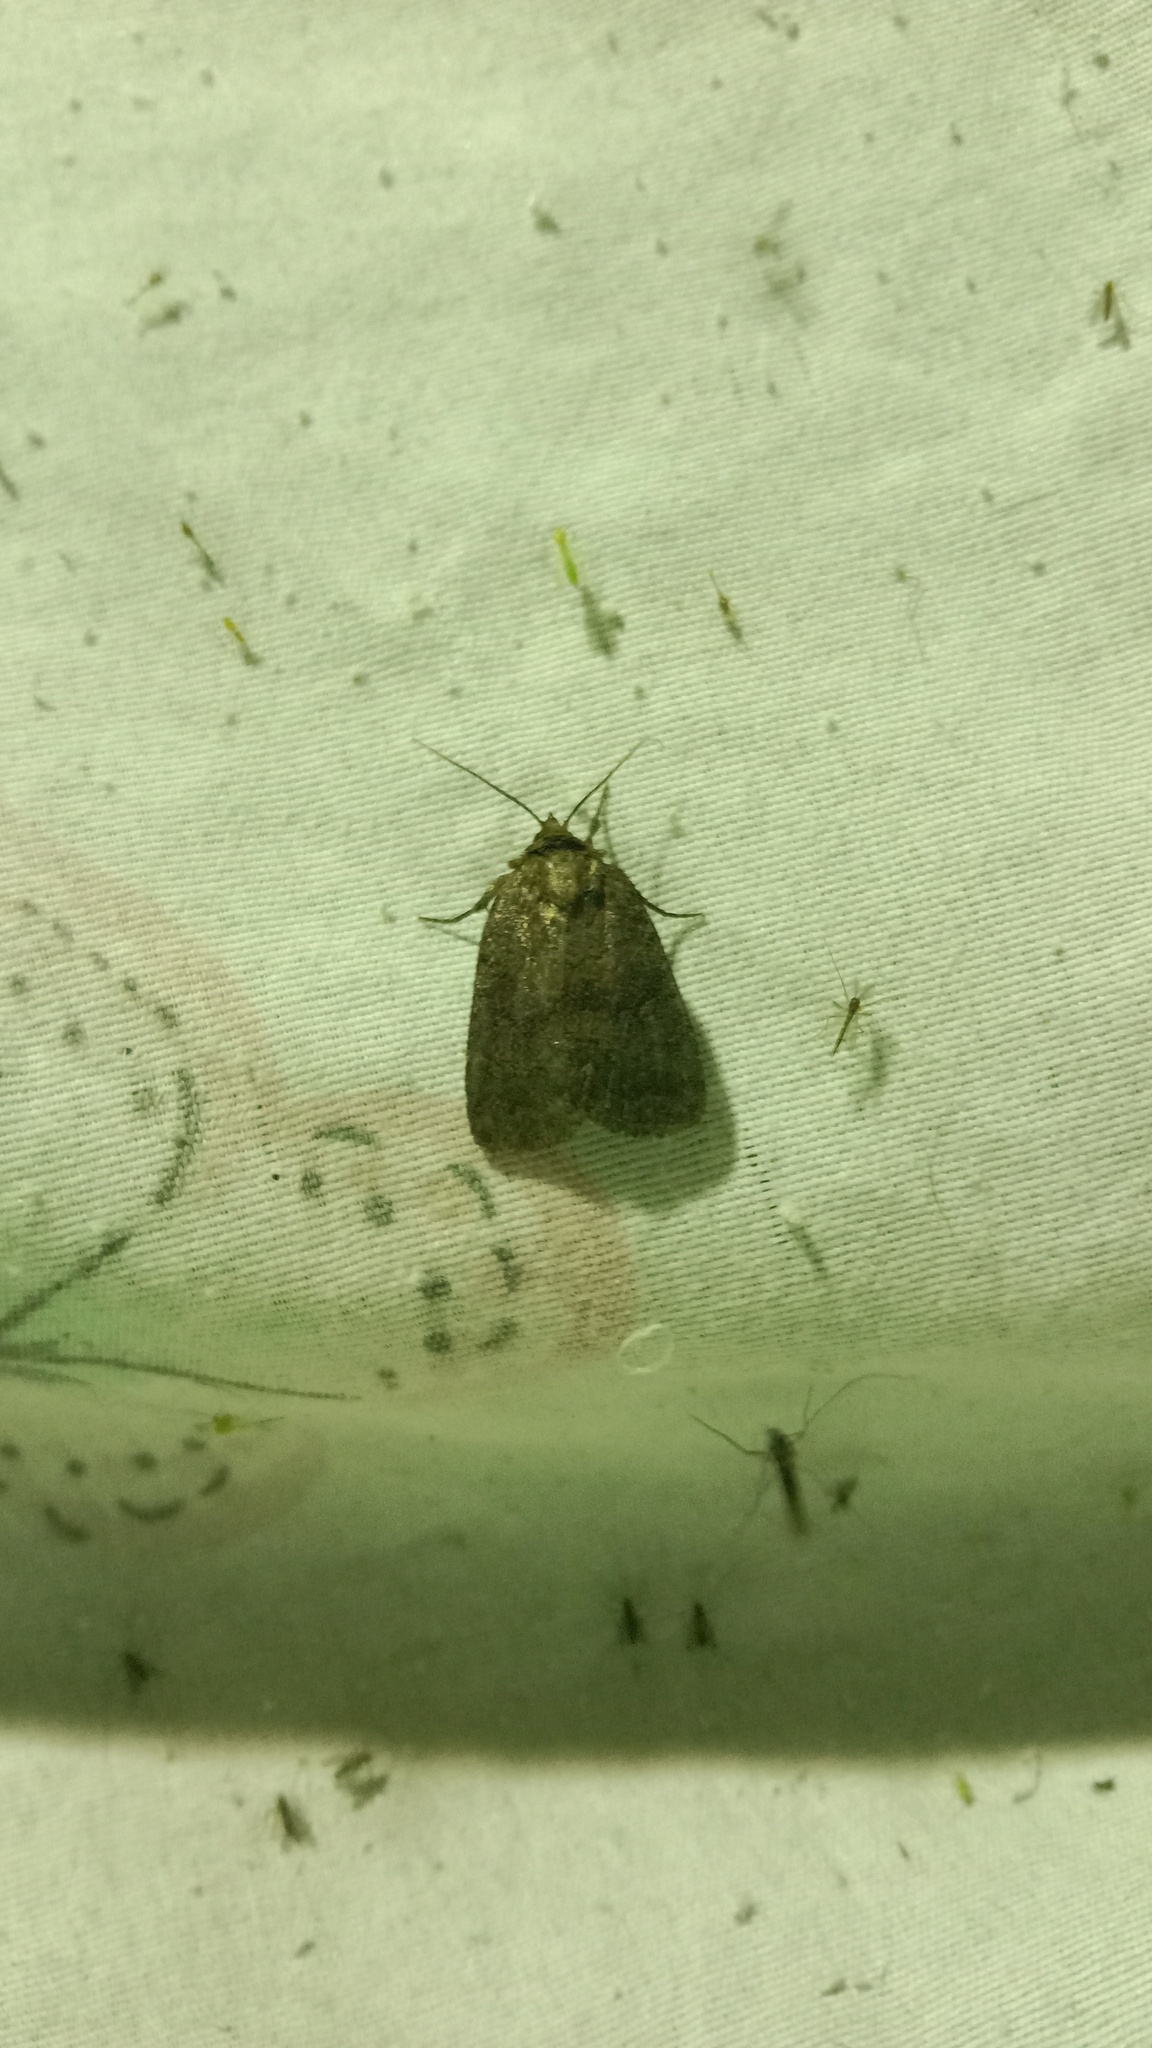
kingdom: Animalia
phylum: Arthropoda
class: Insecta
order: Lepidoptera
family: Noctuidae
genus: Charanyca
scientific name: Charanyca ferruginea
